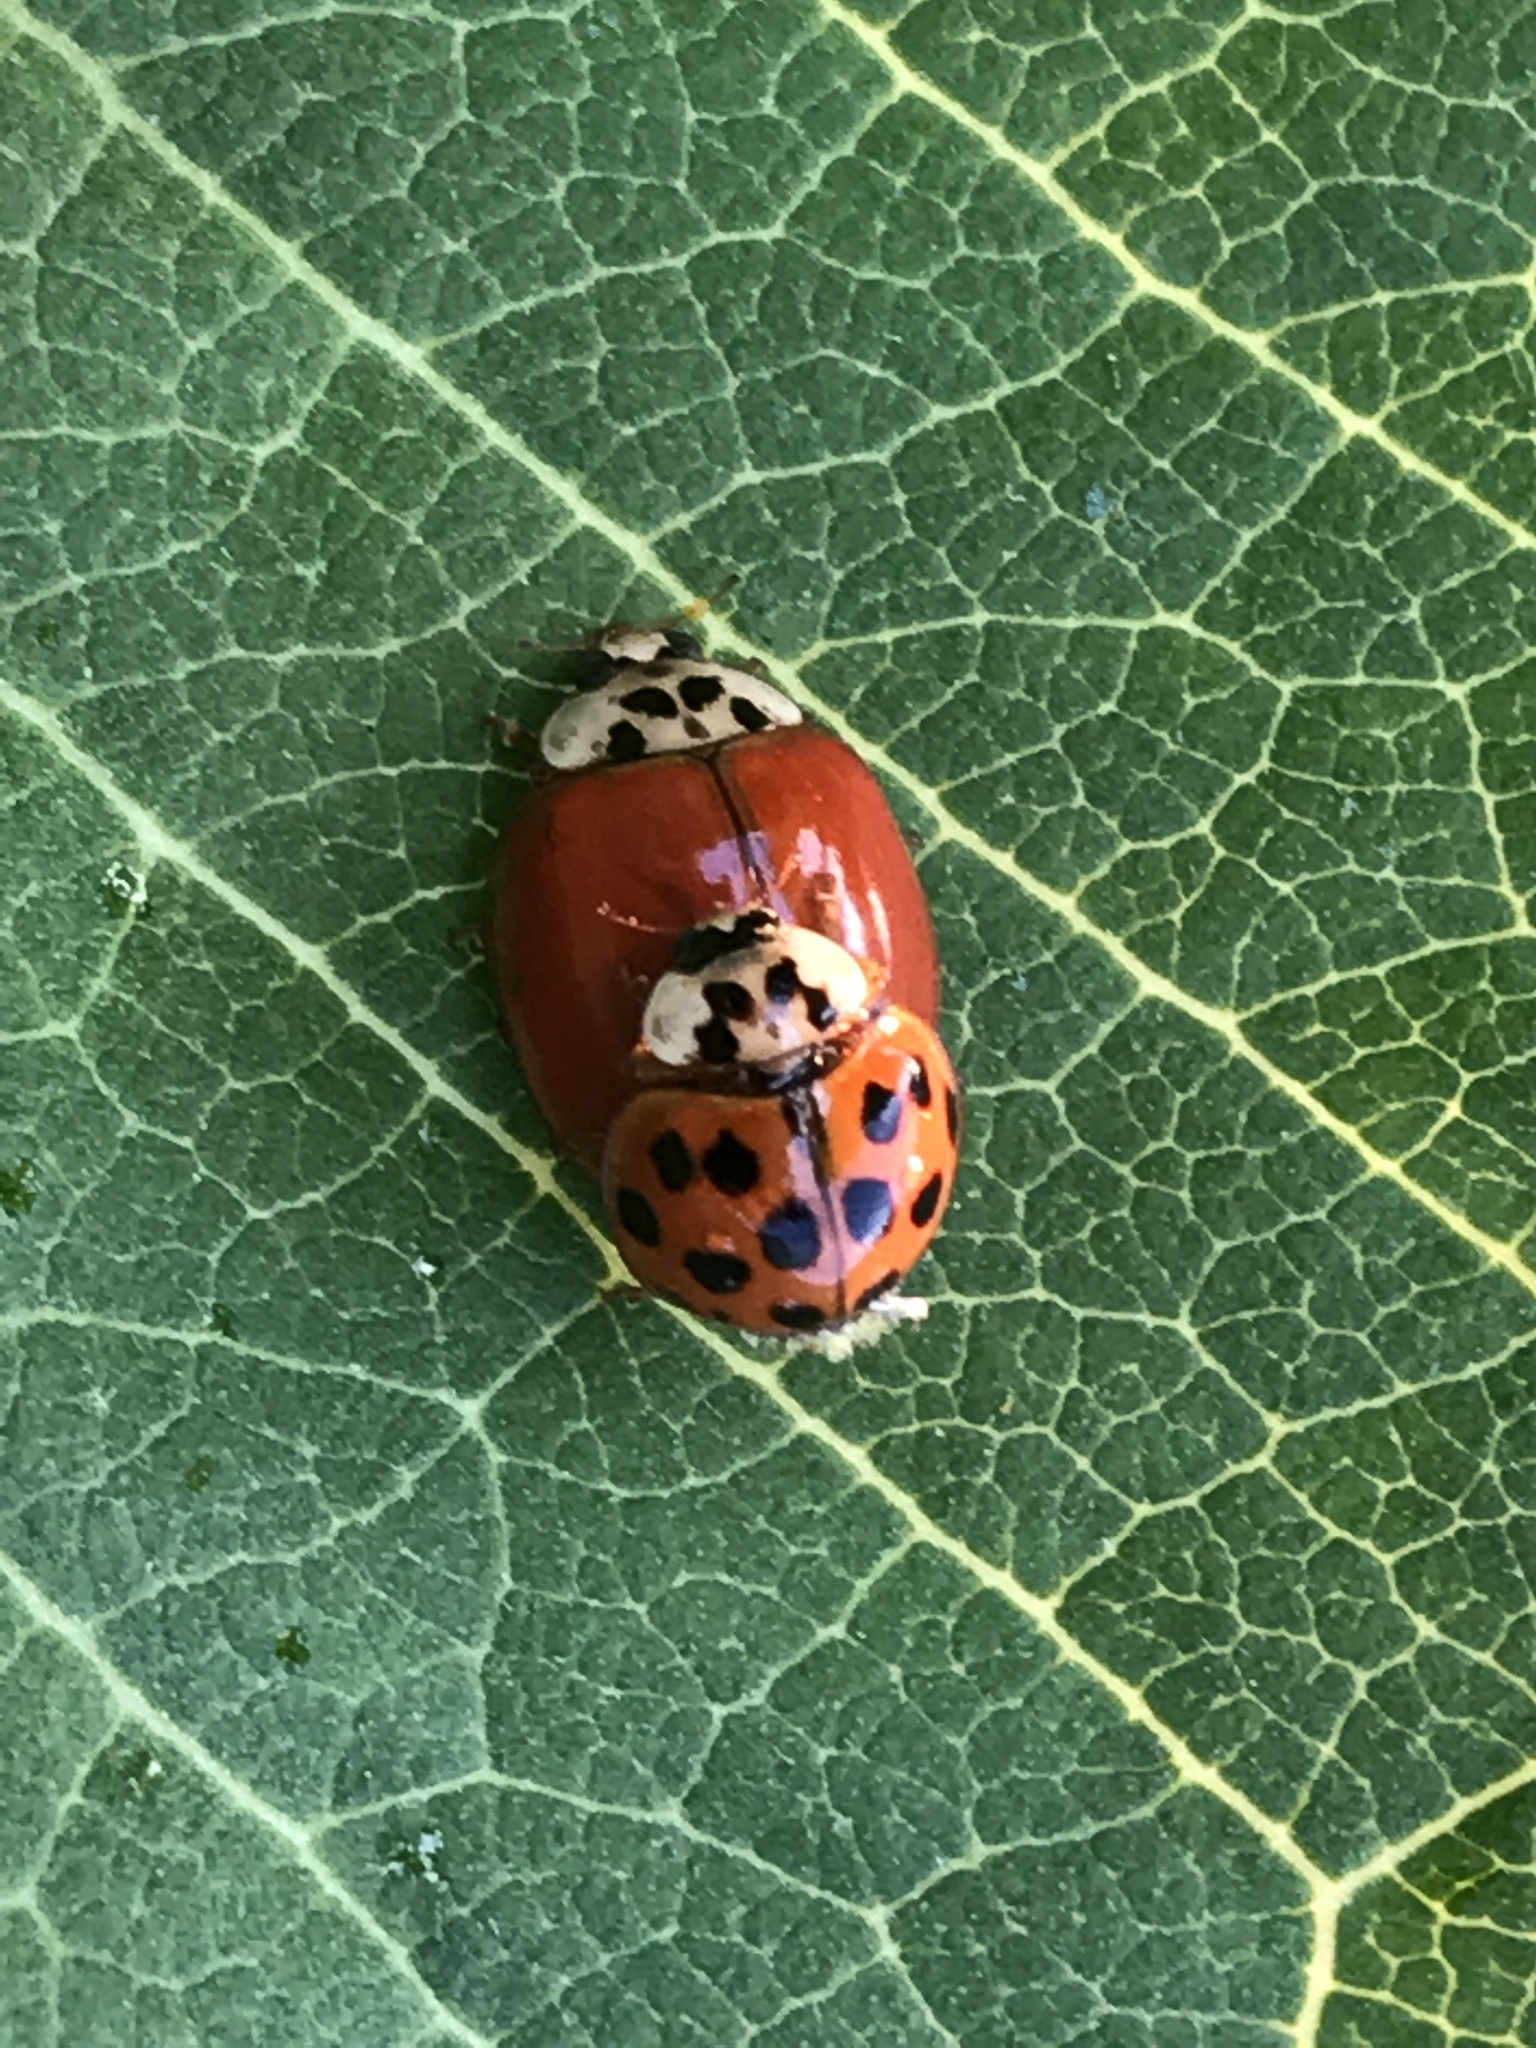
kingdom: Animalia
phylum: Arthropoda
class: Insecta
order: Coleoptera
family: Coccinellidae
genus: Harmonia
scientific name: Harmonia axyridis
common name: Harlequin ladybird
